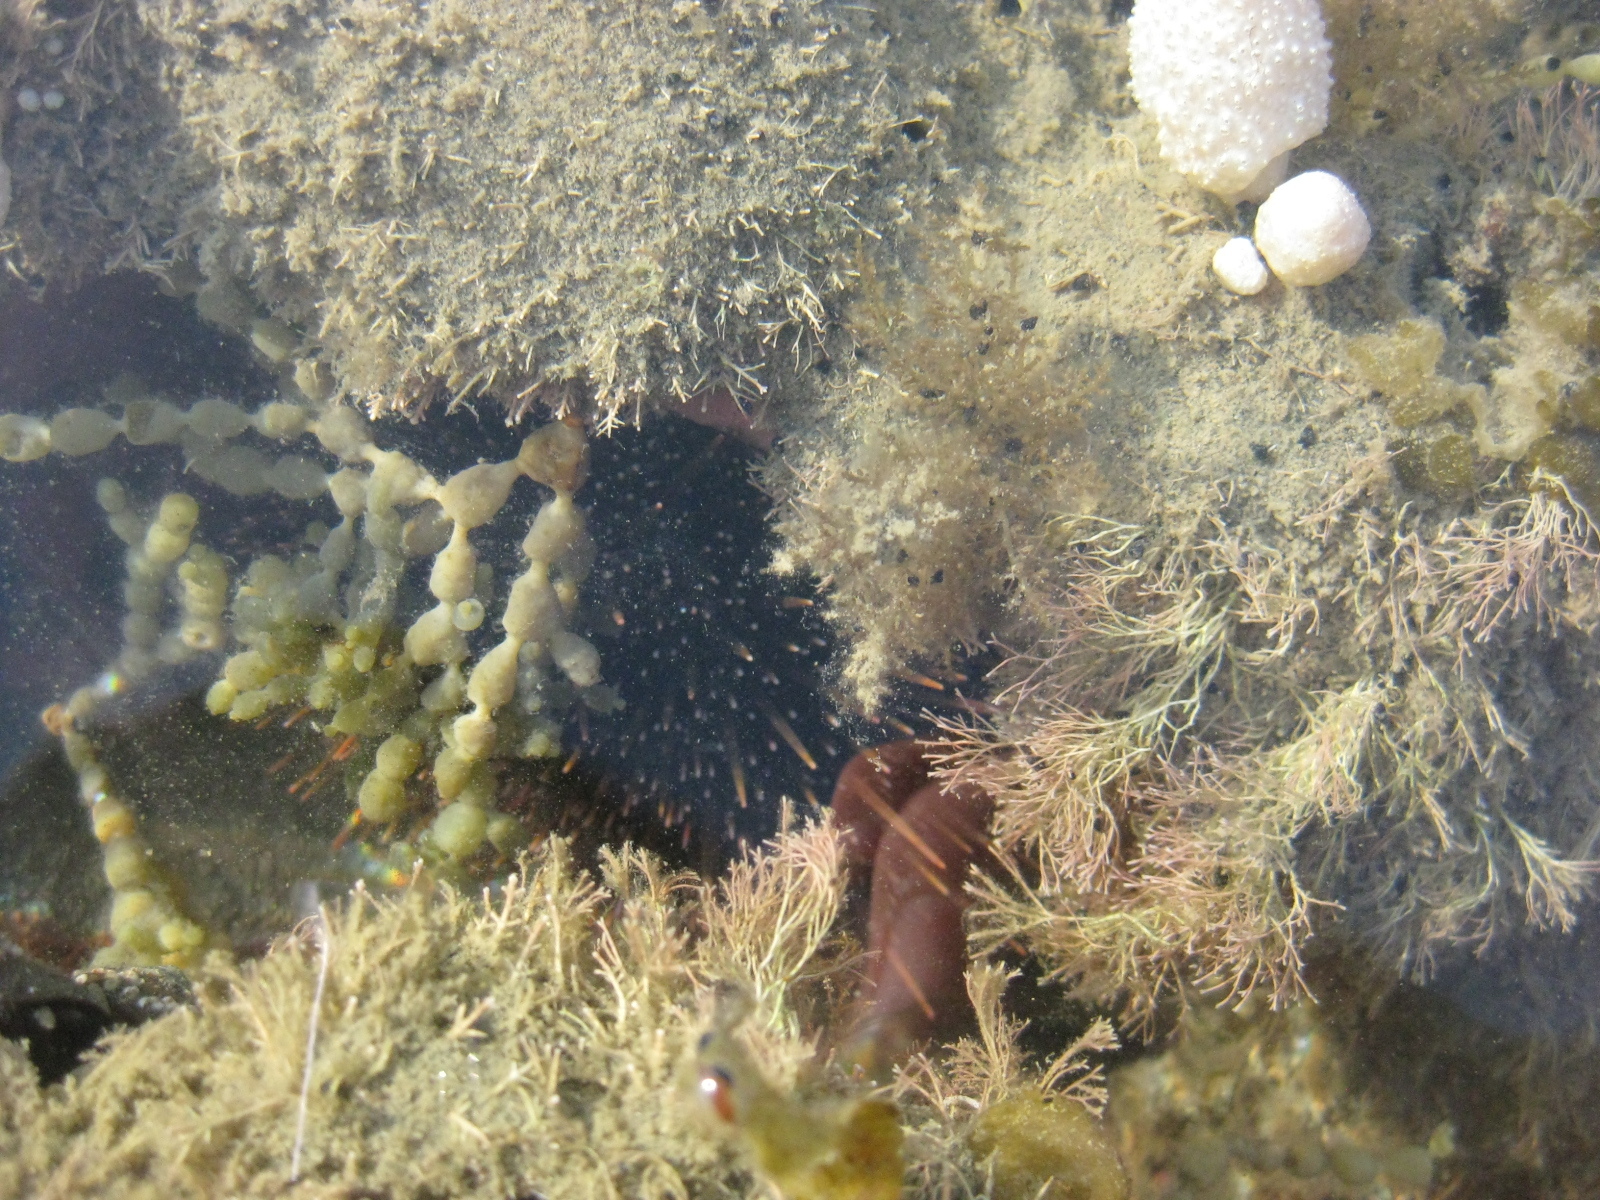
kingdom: Animalia
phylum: Echinodermata
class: Echinoidea
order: Camarodonta
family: Echinometridae
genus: Evechinus
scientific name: Evechinus chloroticus
